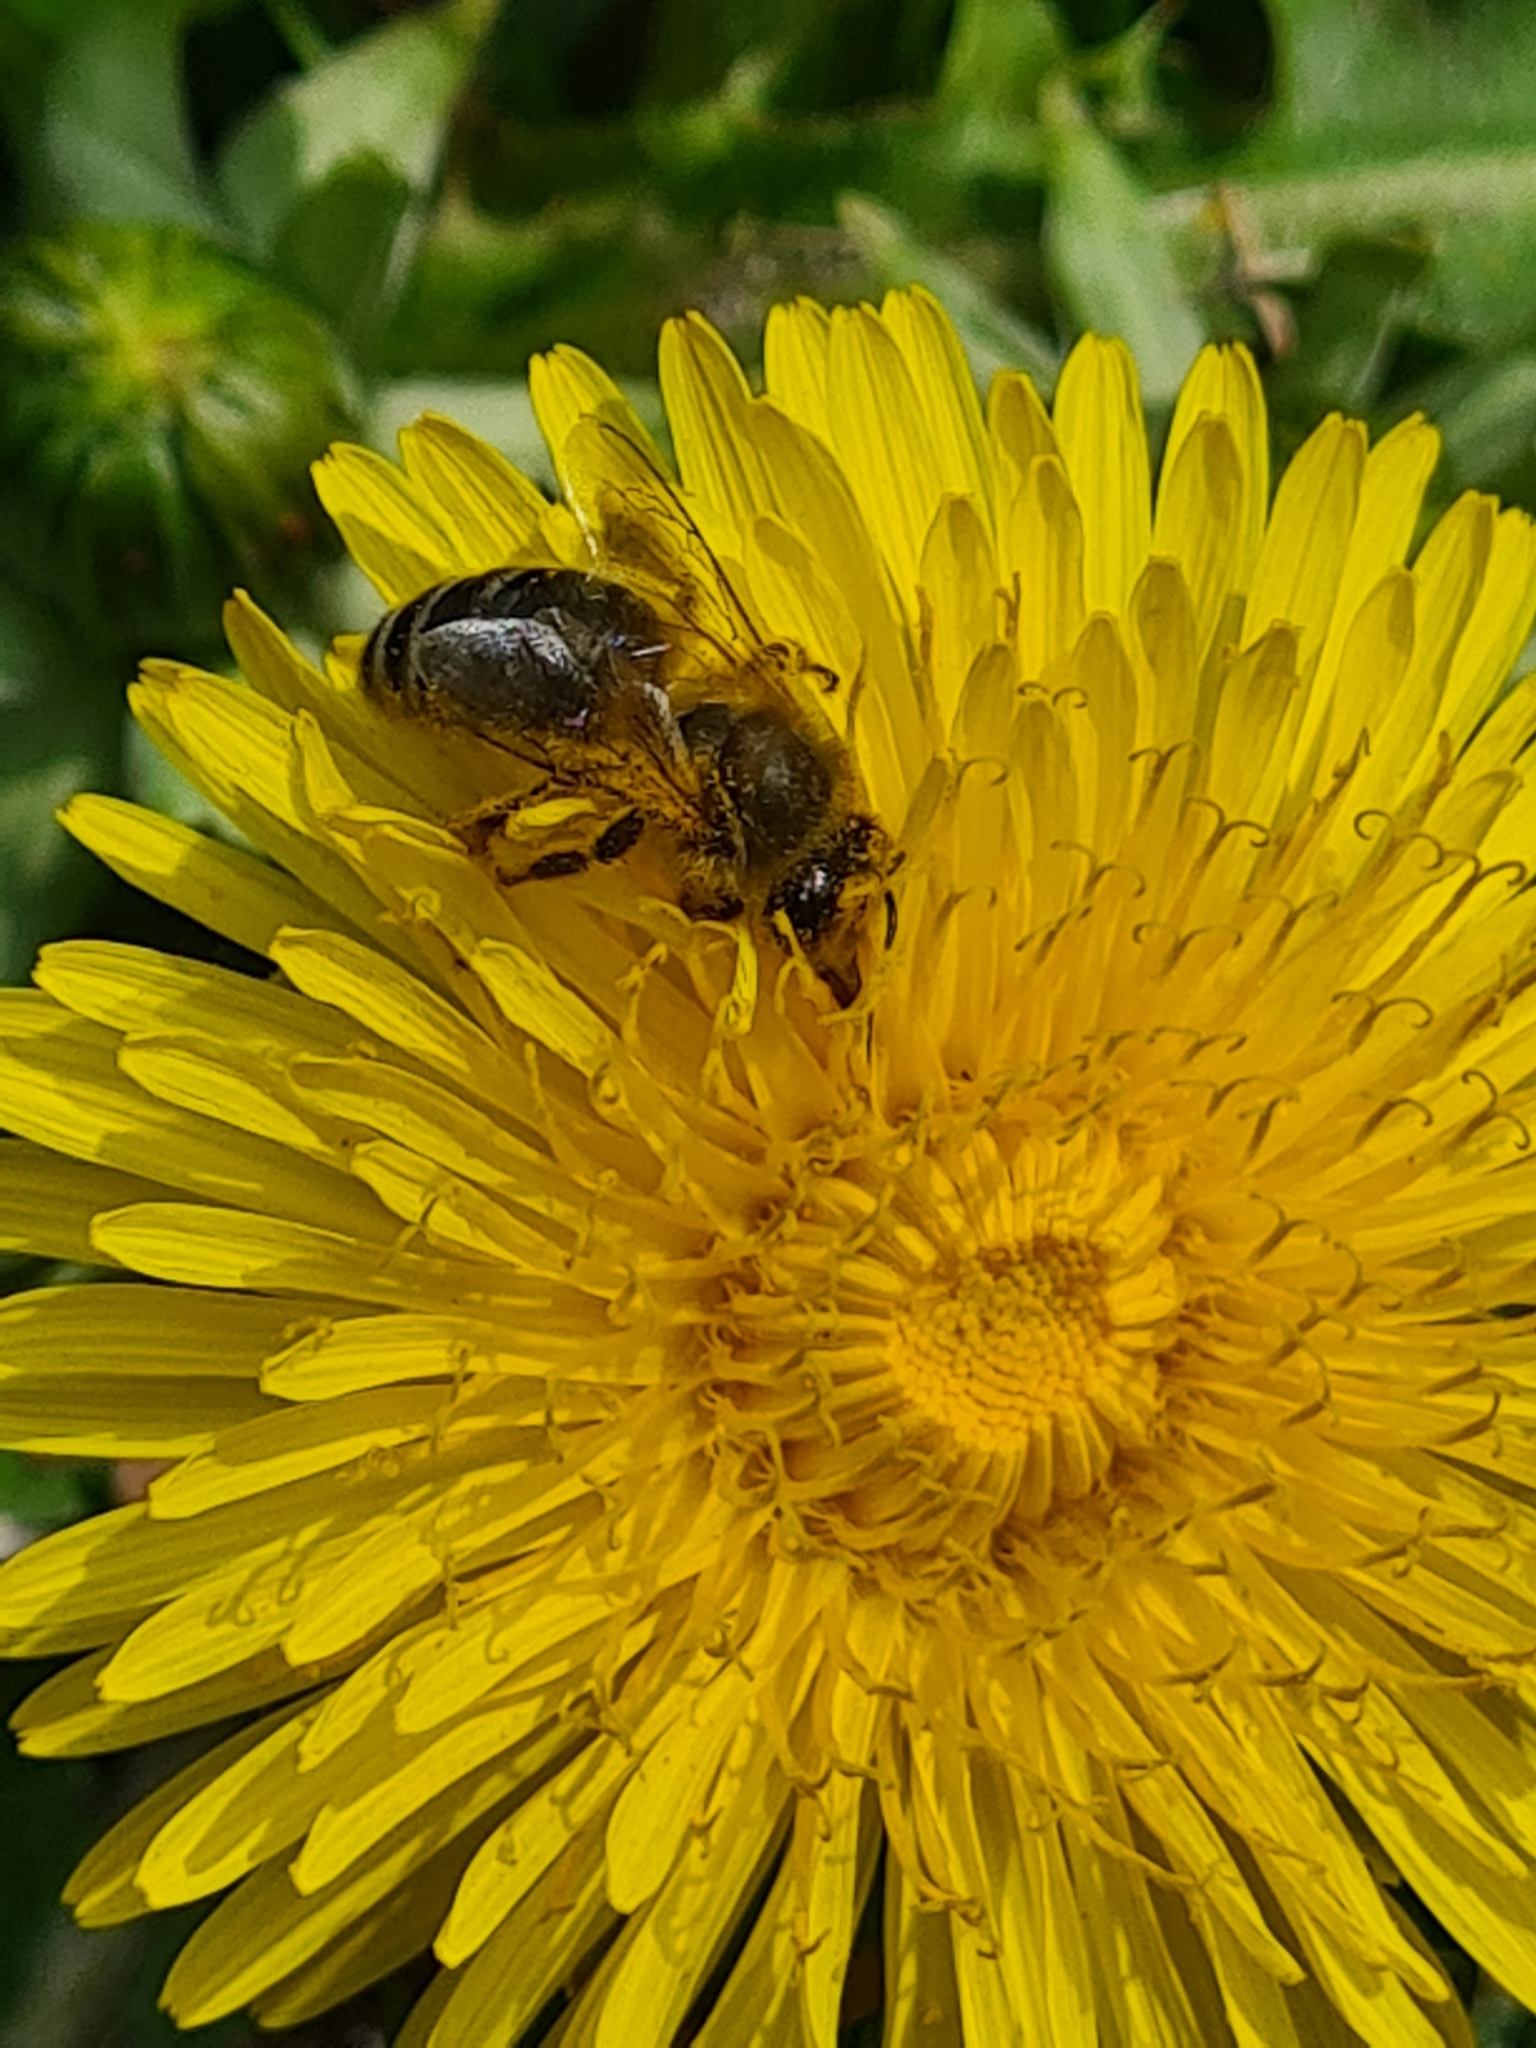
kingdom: Animalia
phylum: Arthropoda
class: Insecta
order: Hymenoptera
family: Apidae
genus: Apis
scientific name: Apis mellifera
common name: Honey bee
